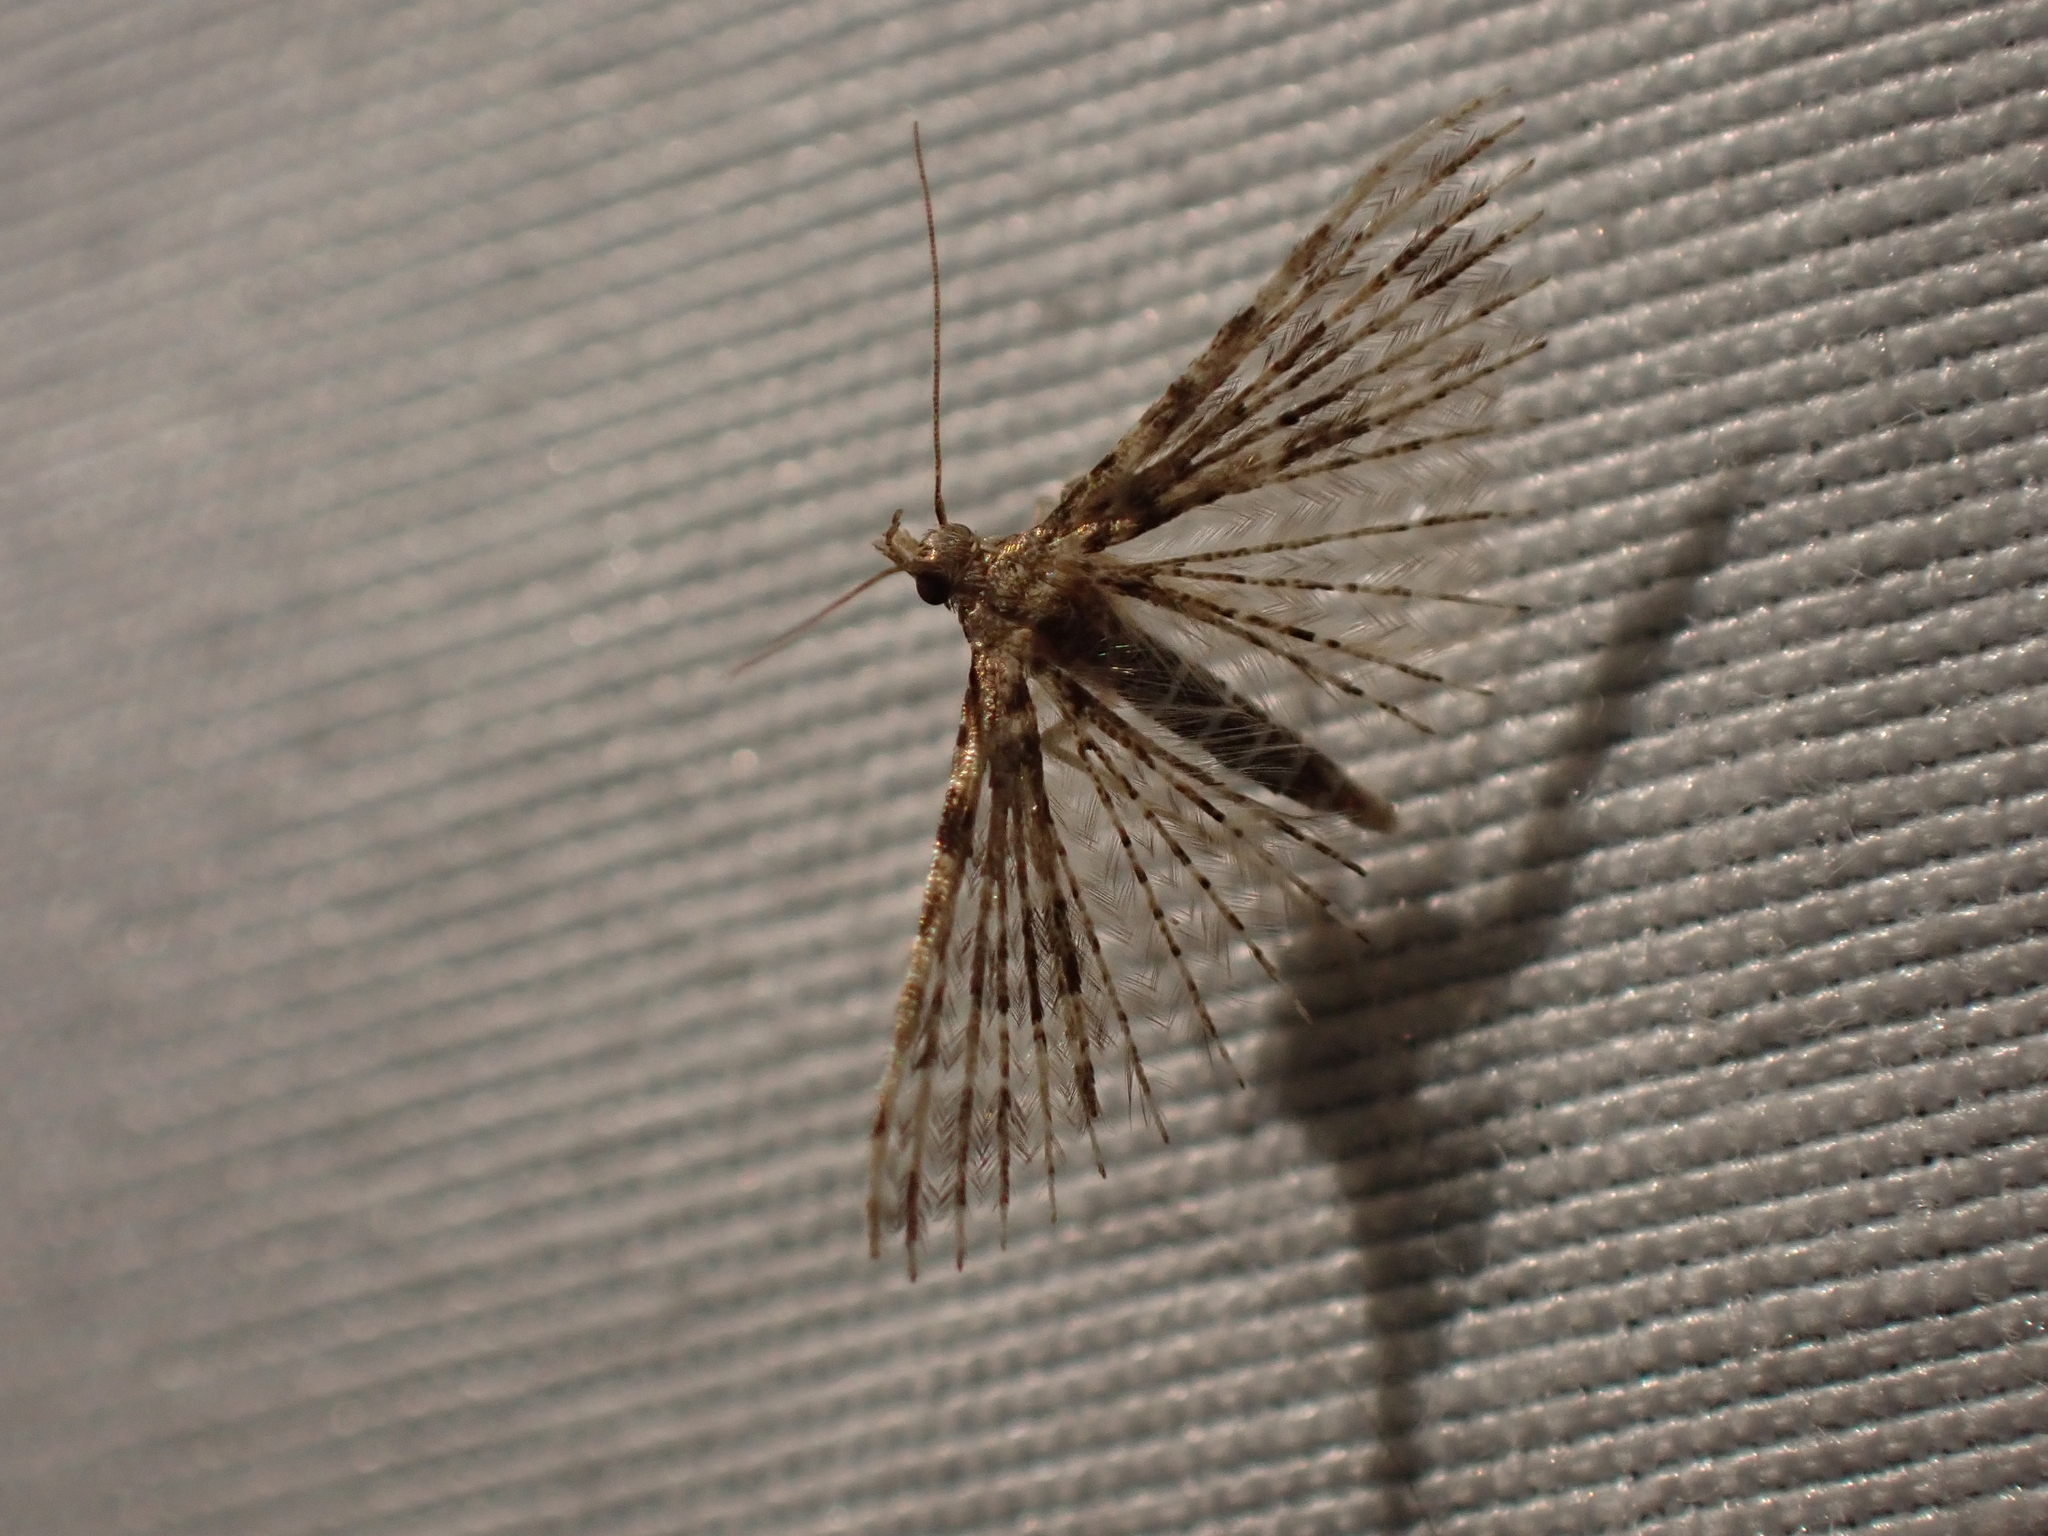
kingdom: Animalia
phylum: Arthropoda
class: Insecta
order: Lepidoptera
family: Alucitidae
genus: Alucita
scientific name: Alucita montana
